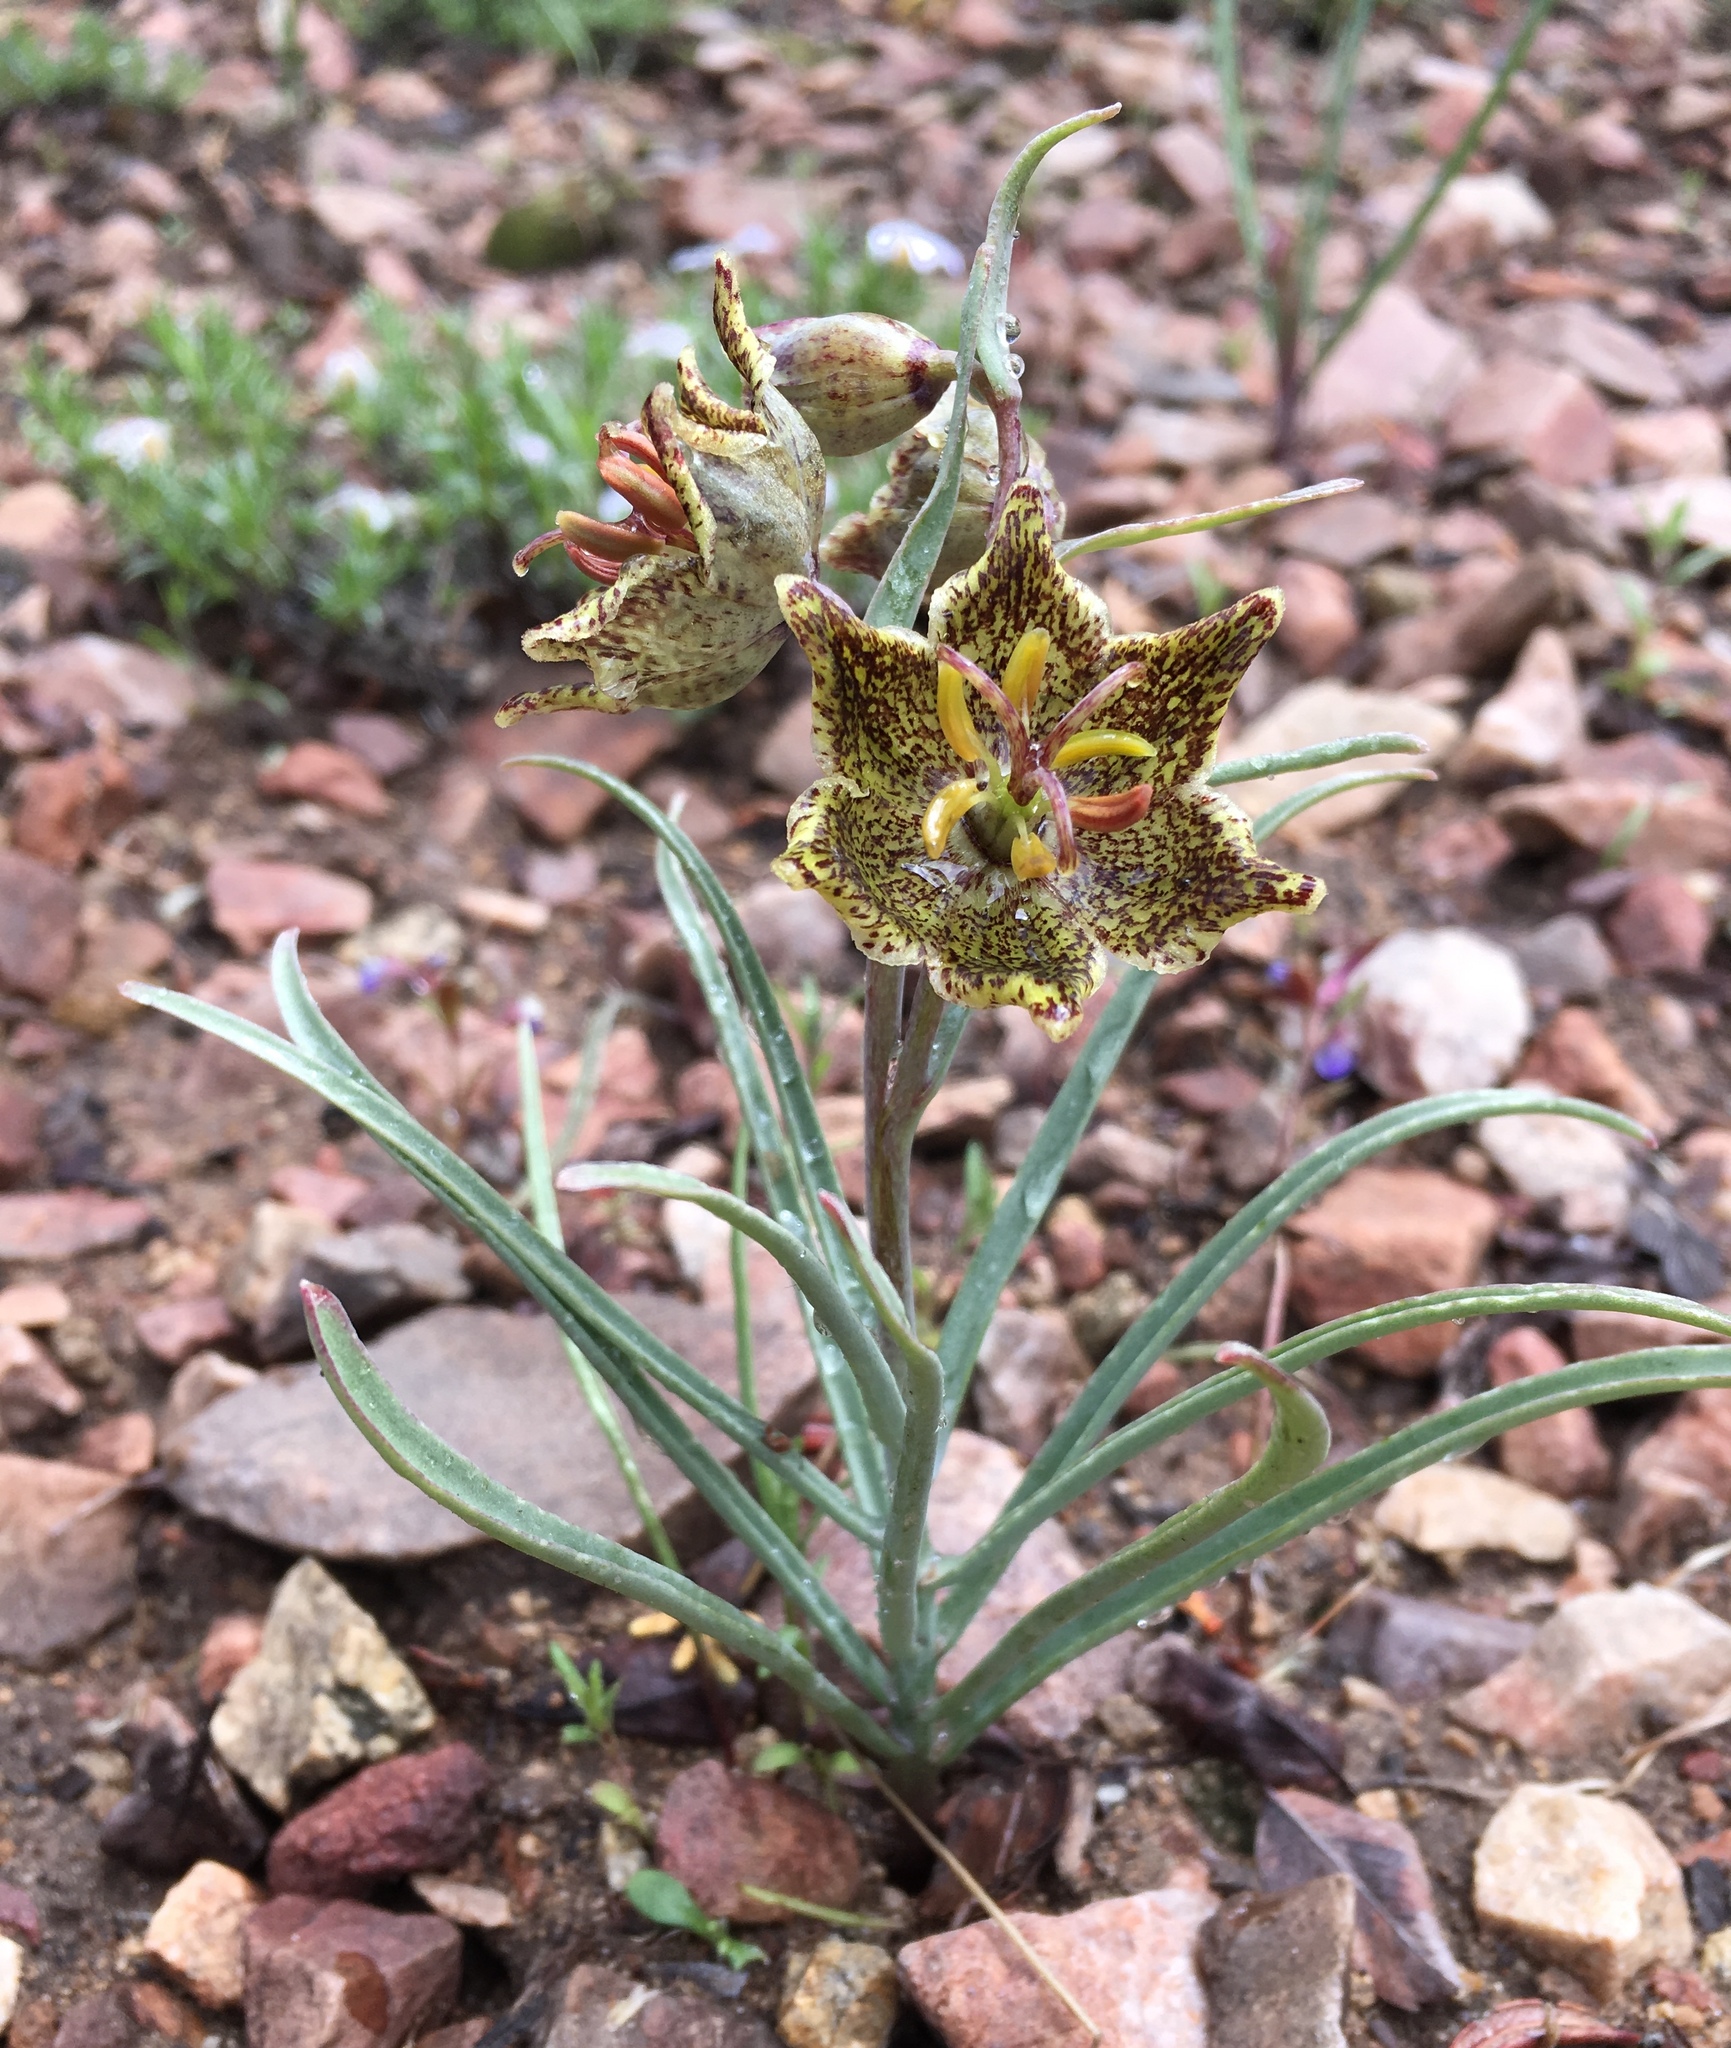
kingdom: Plantae
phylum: Tracheophyta
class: Liliopsida
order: Liliales
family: Liliaceae
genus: Fritillaria
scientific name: Fritillaria pinetorum
